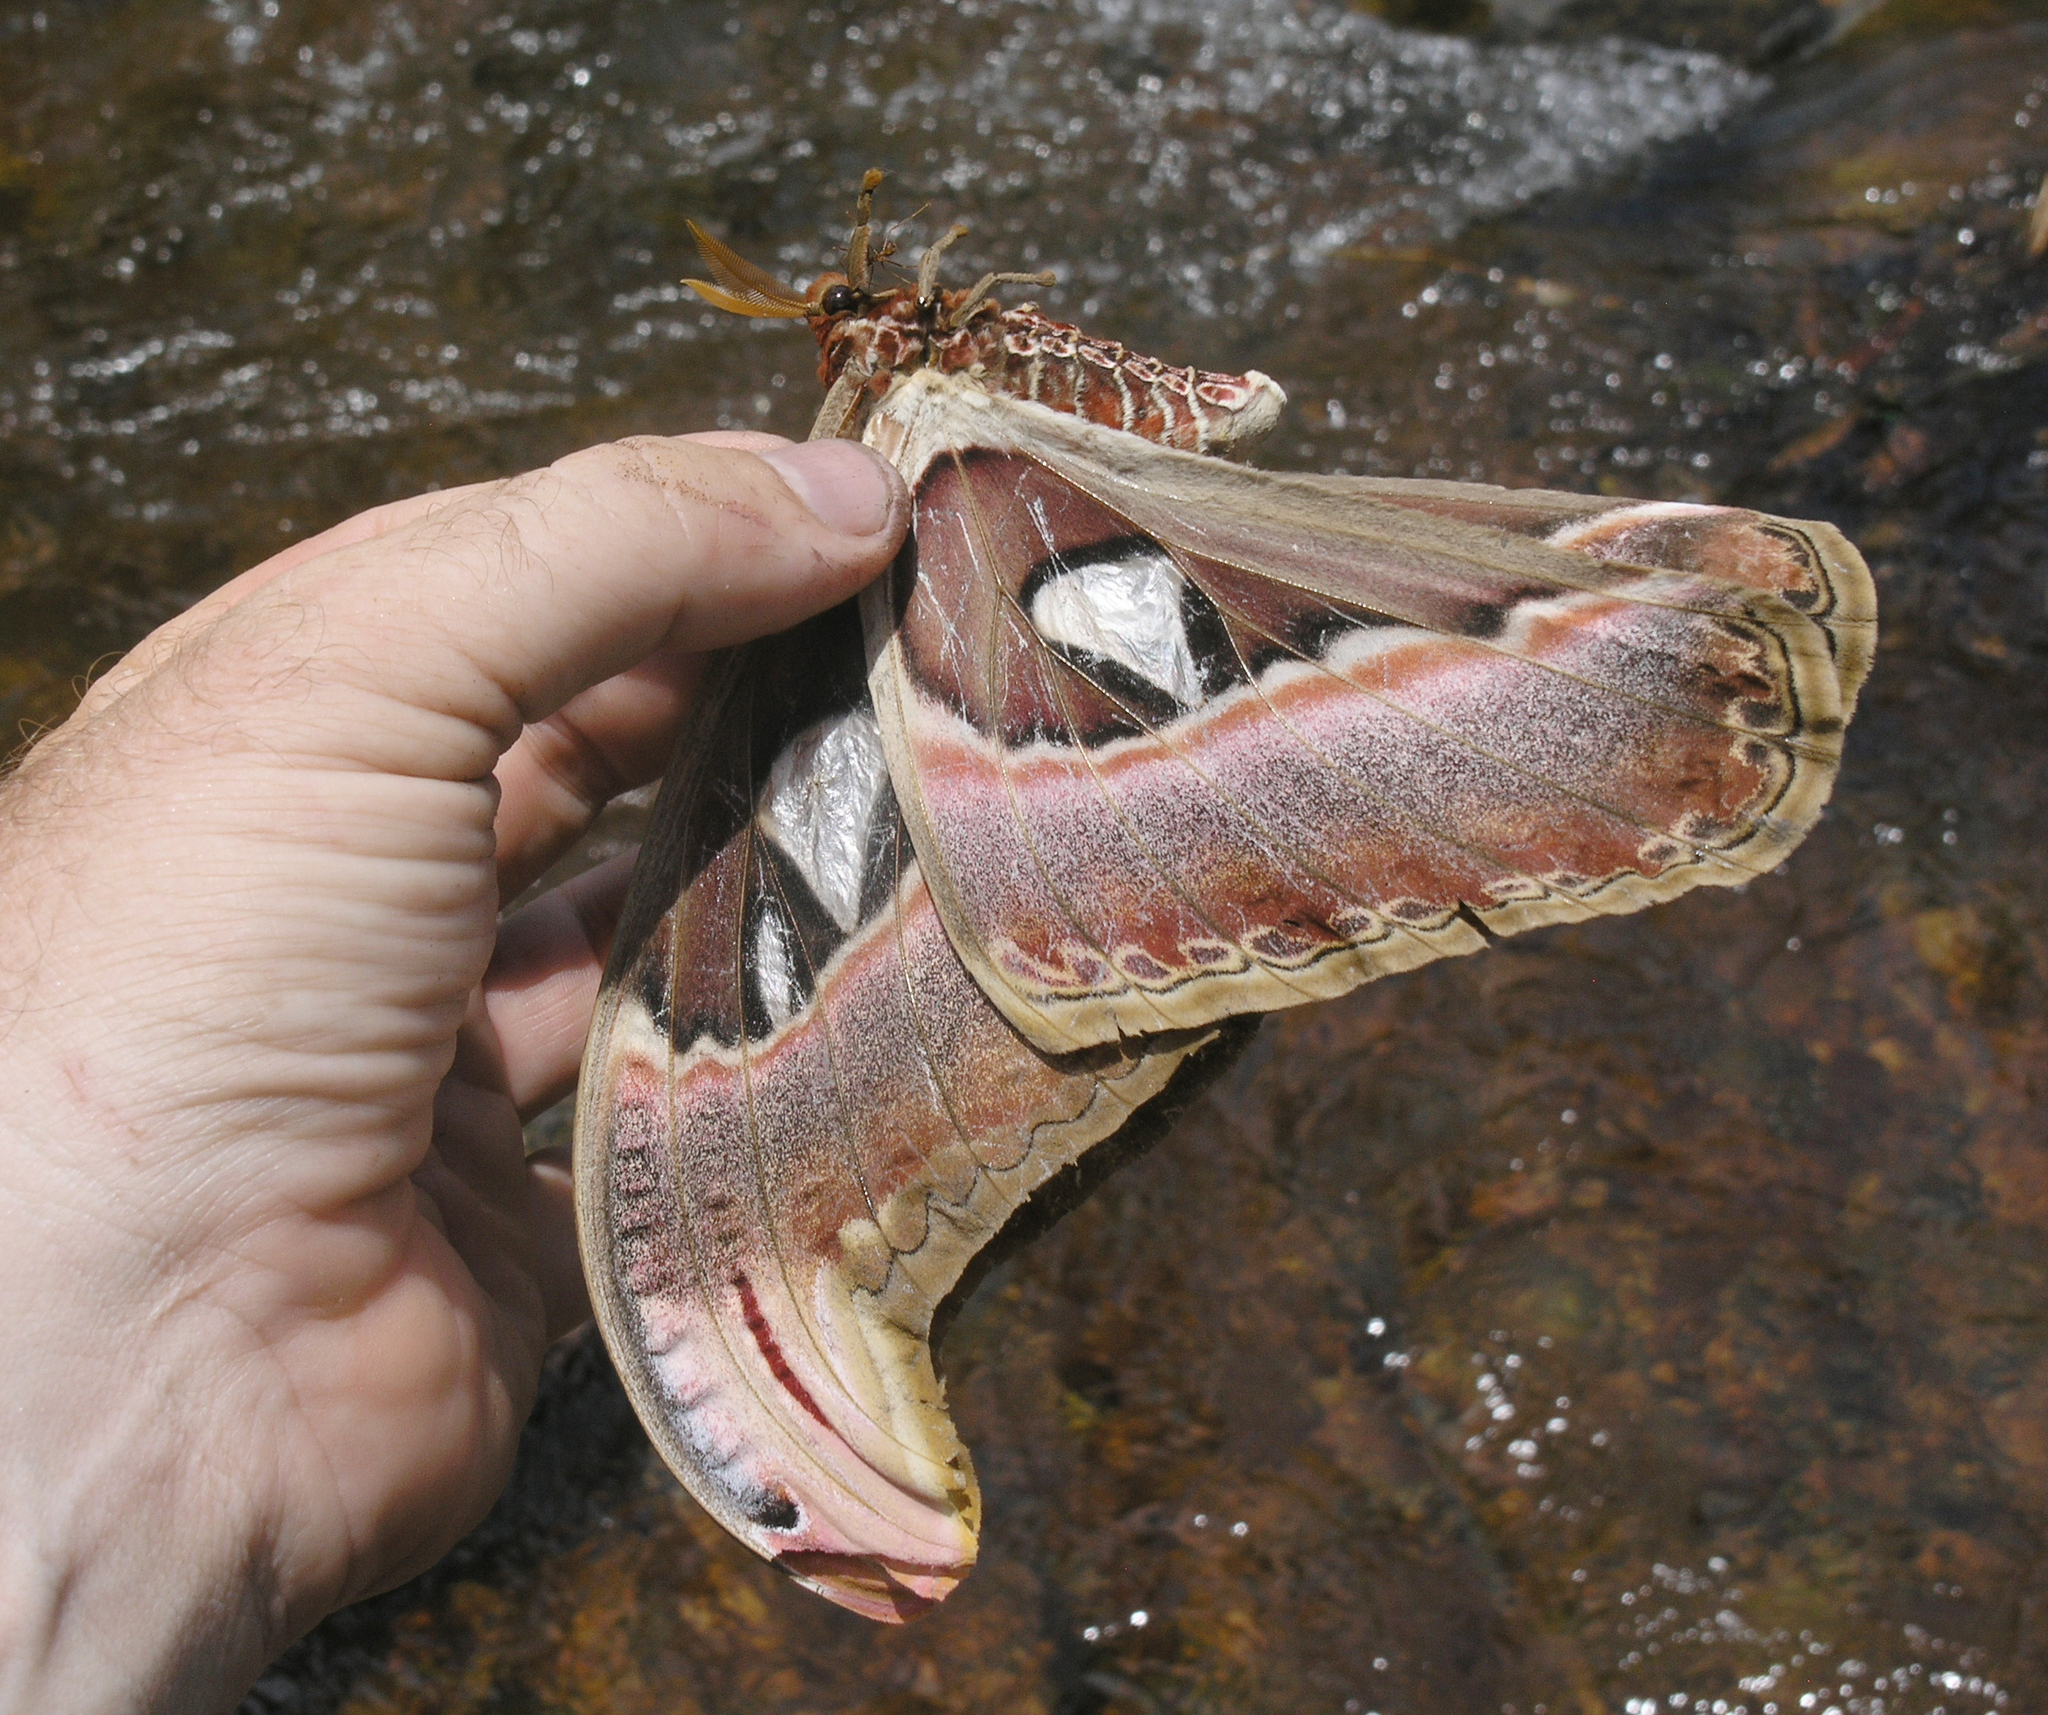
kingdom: Animalia
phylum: Arthropoda
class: Insecta
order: Lepidoptera
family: Saturniidae
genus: Attacus
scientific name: Attacus atlas
